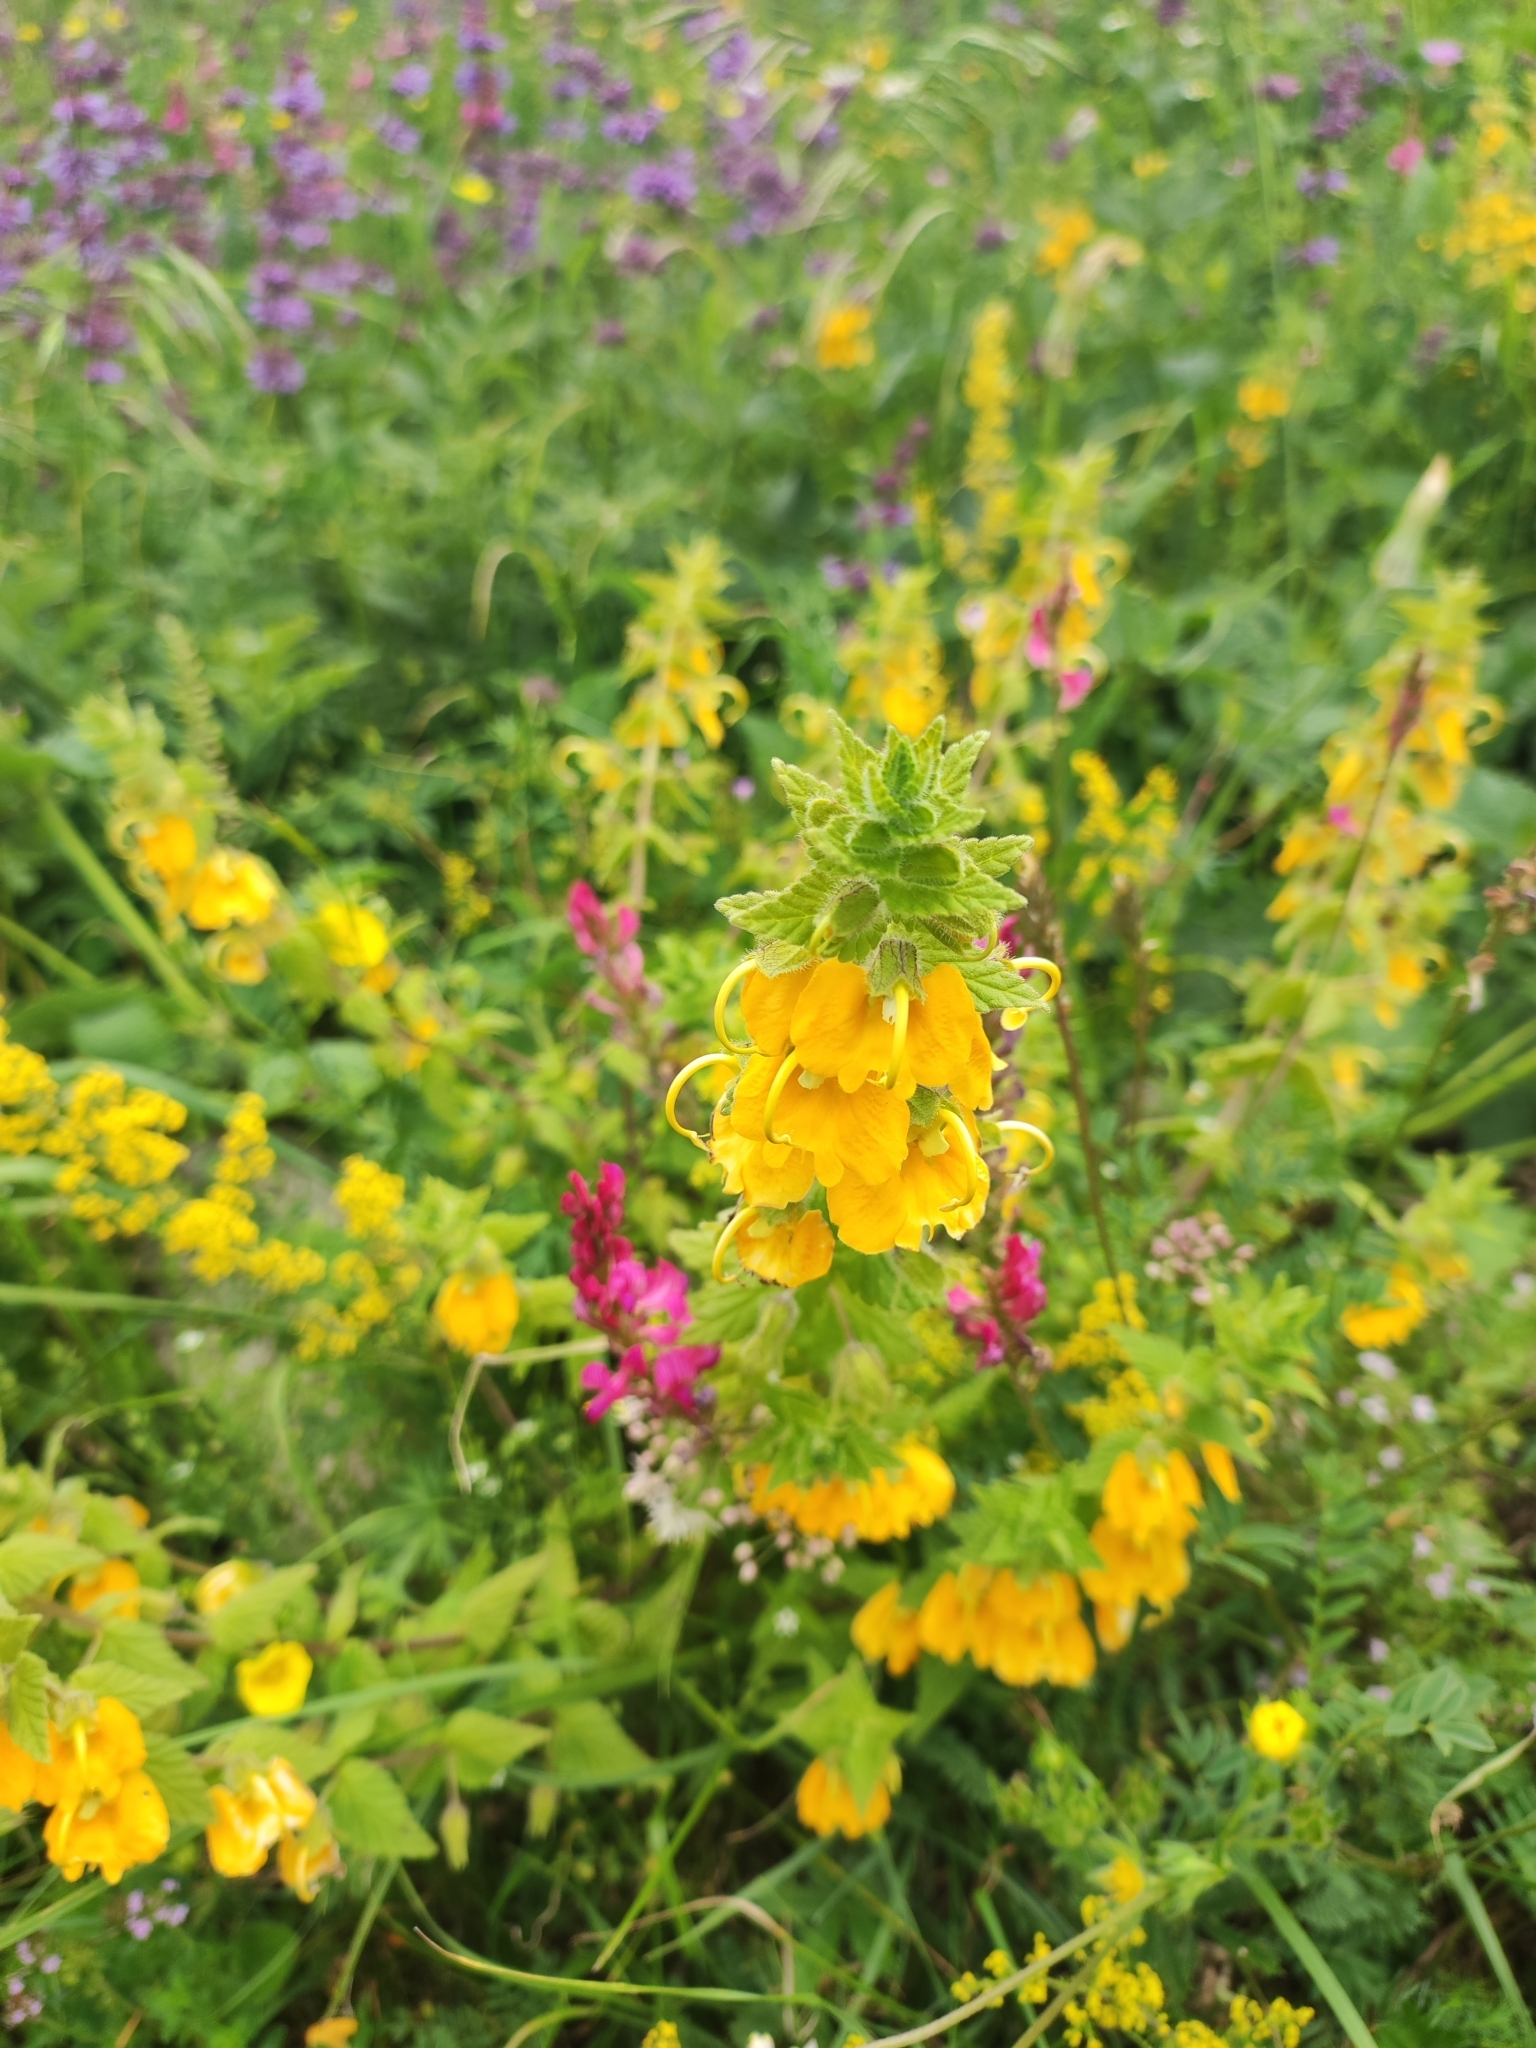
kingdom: Plantae
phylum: Tracheophyta
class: Magnoliopsida
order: Lamiales
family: Orobanchaceae
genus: Rhynchocorys
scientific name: Rhynchocorys orientalis
